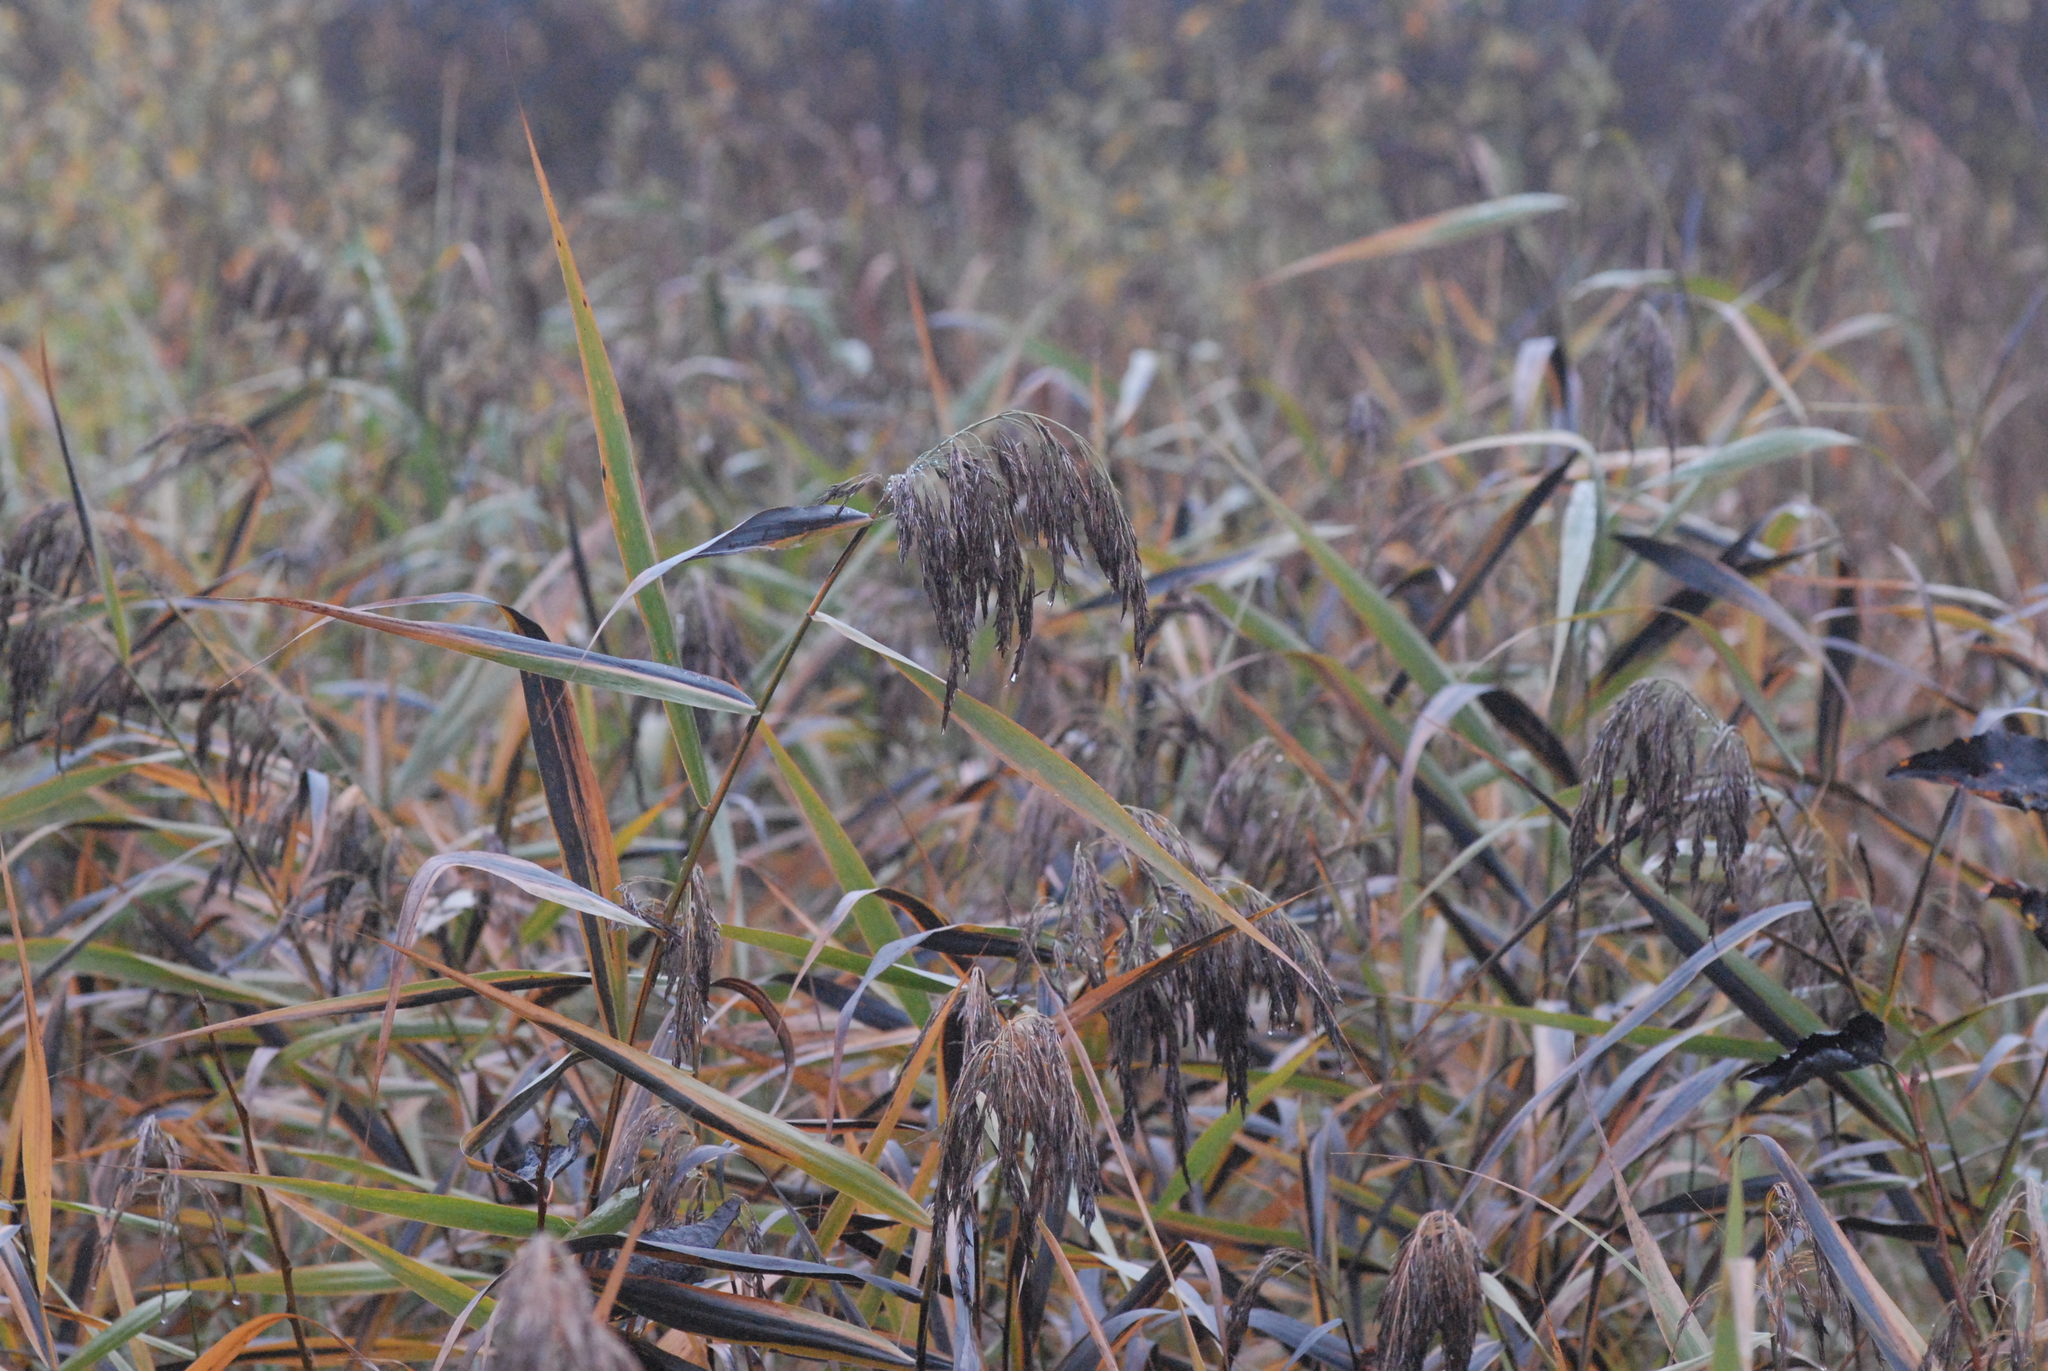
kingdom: Plantae
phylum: Tracheophyta
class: Liliopsida
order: Poales
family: Poaceae
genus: Phragmites
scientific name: Phragmites australis
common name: Common reed
